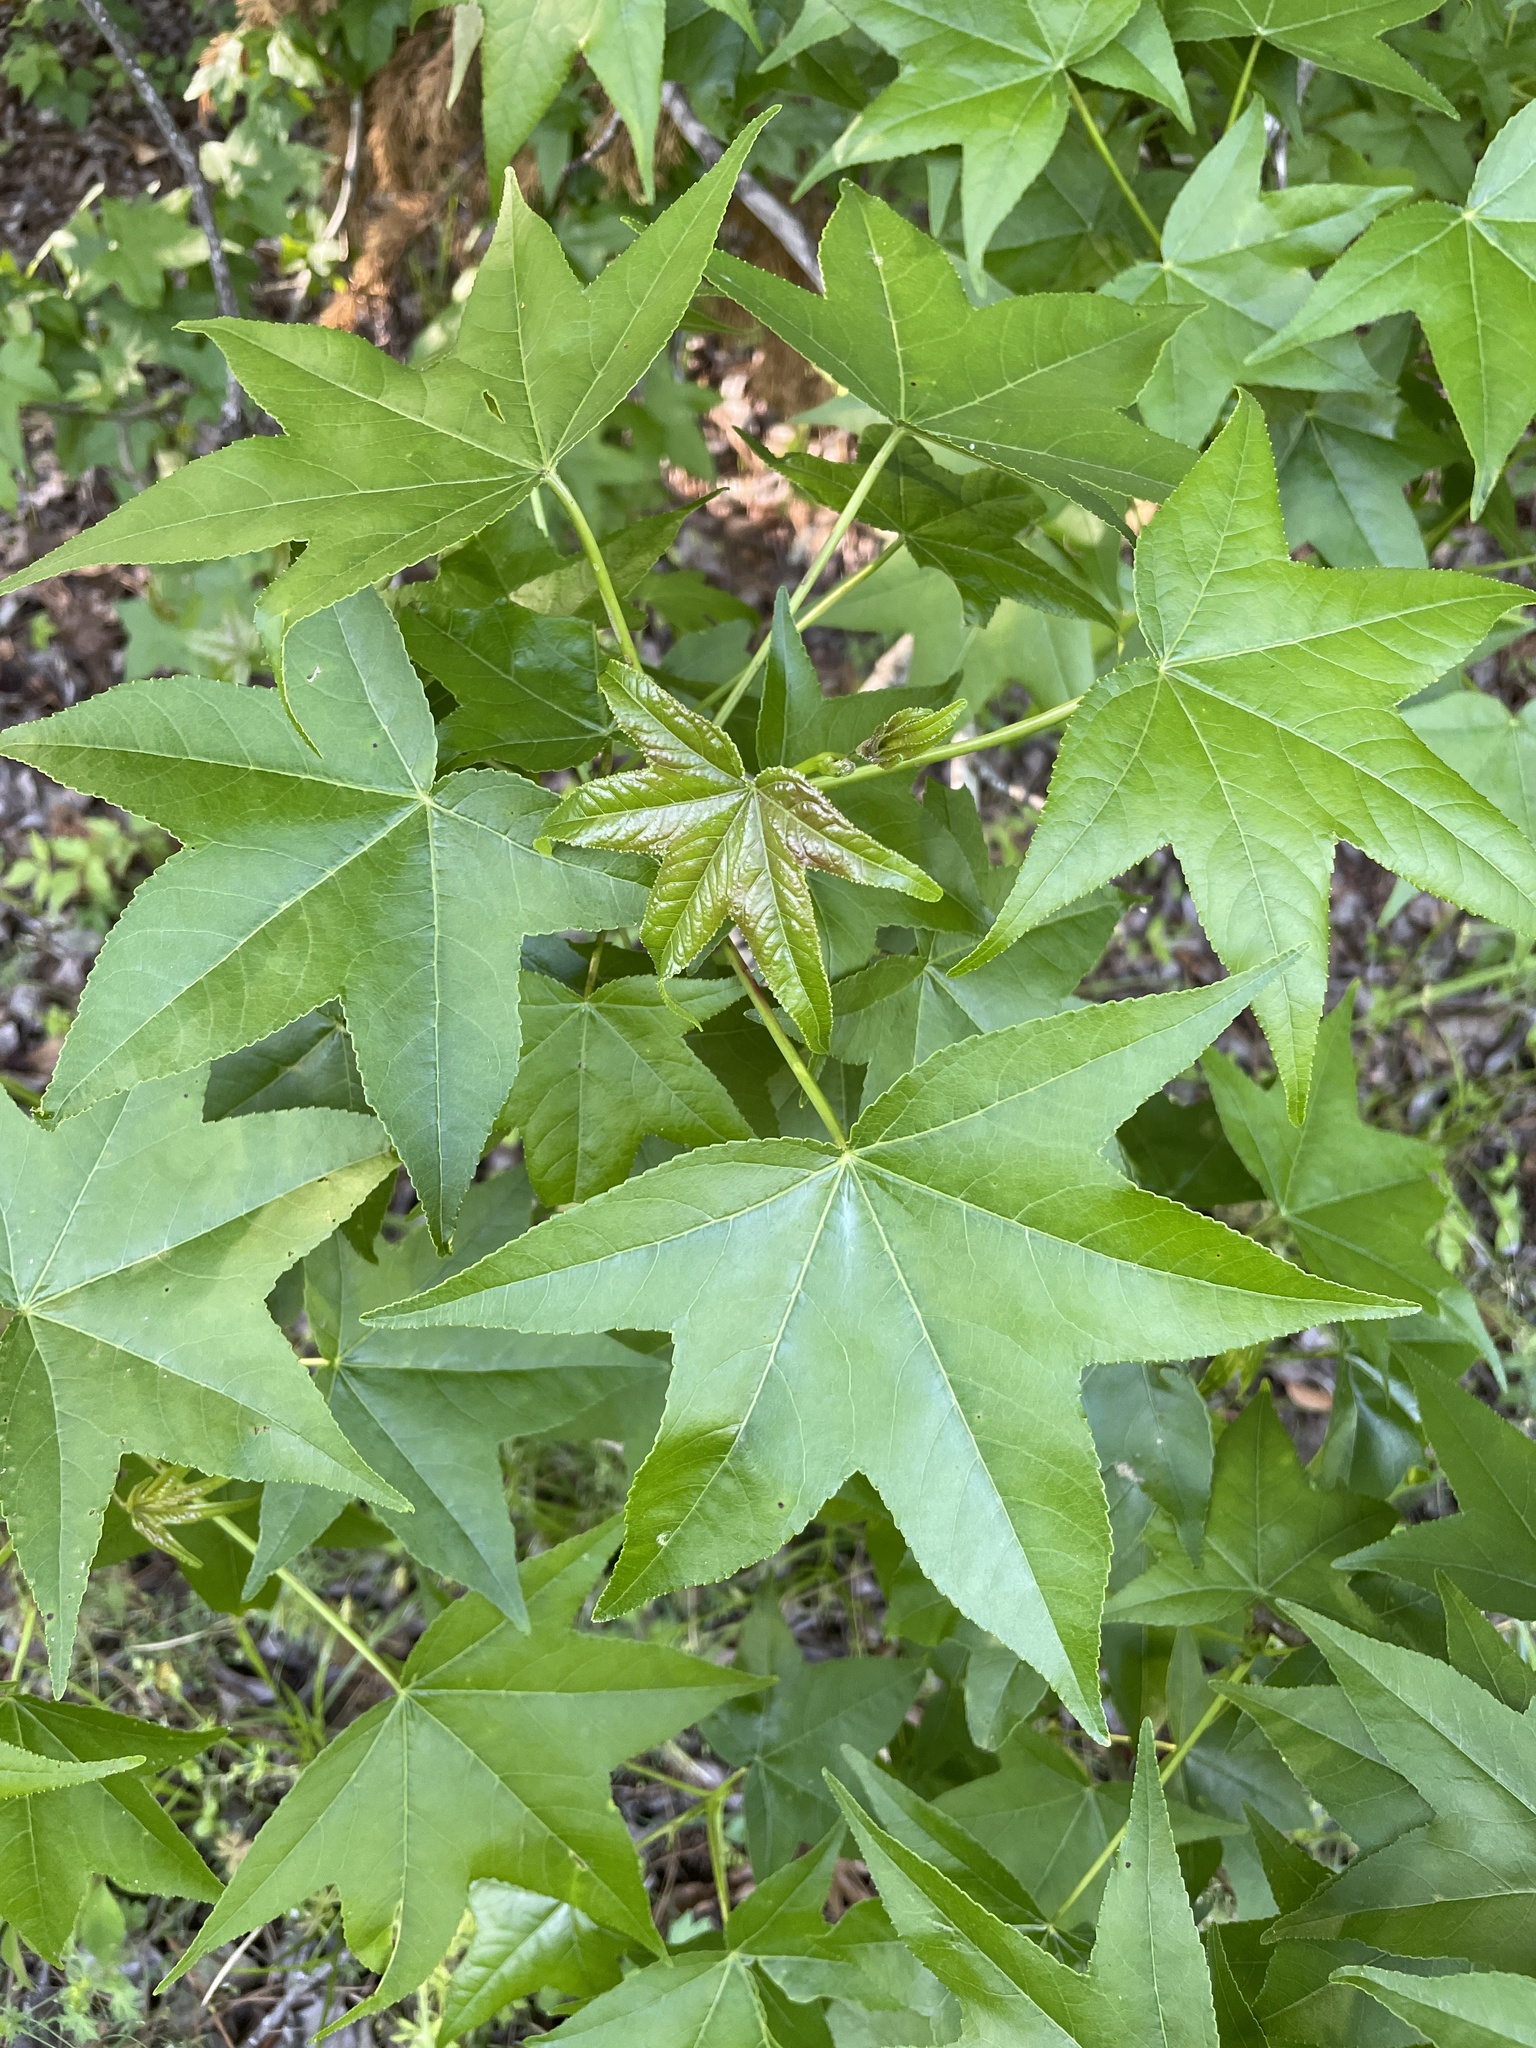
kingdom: Plantae
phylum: Tracheophyta
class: Magnoliopsida
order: Saxifragales
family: Altingiaceae
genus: Liquidambar
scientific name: Liquidambar styraciflua
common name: Sweet gum
